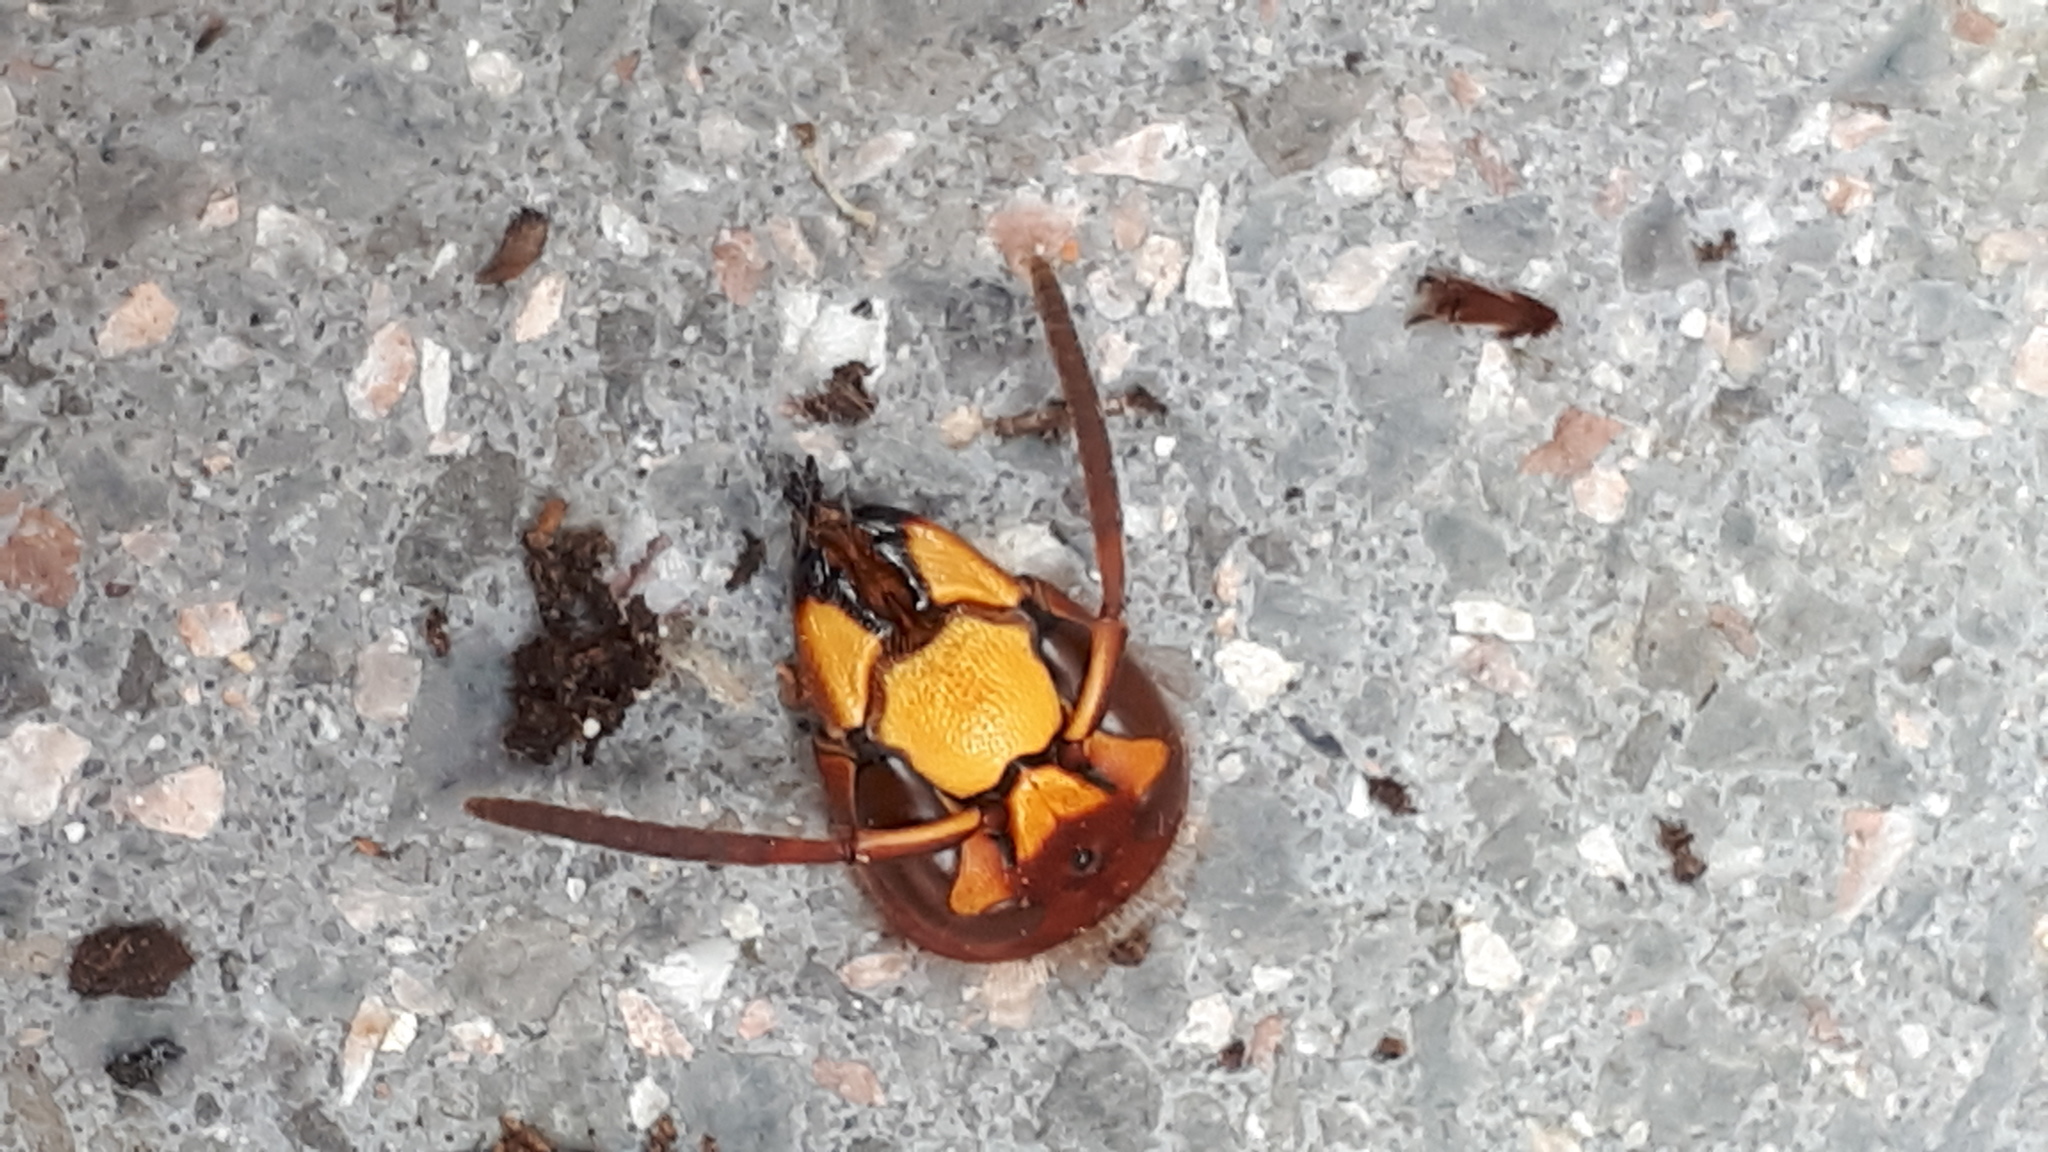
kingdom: Animalia
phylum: Arthropoda
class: Insecta
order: Hymenoptera
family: Vespidae
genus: Vespa
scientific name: Vespa crabro
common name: Hornet
